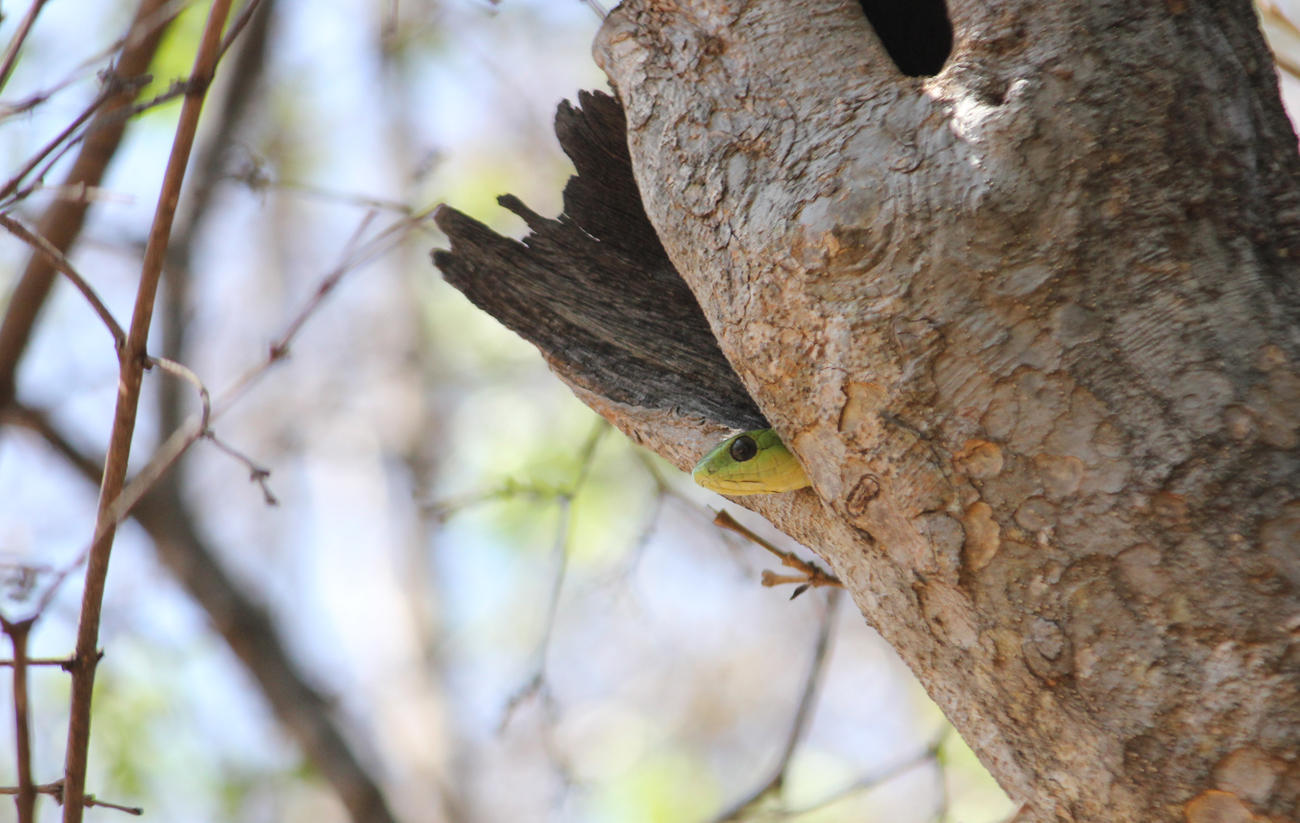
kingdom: Animalia
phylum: Chordata
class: Squamata
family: Colubridae
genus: Dispholidus
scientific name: Dispholidus typus
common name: Boomslang
